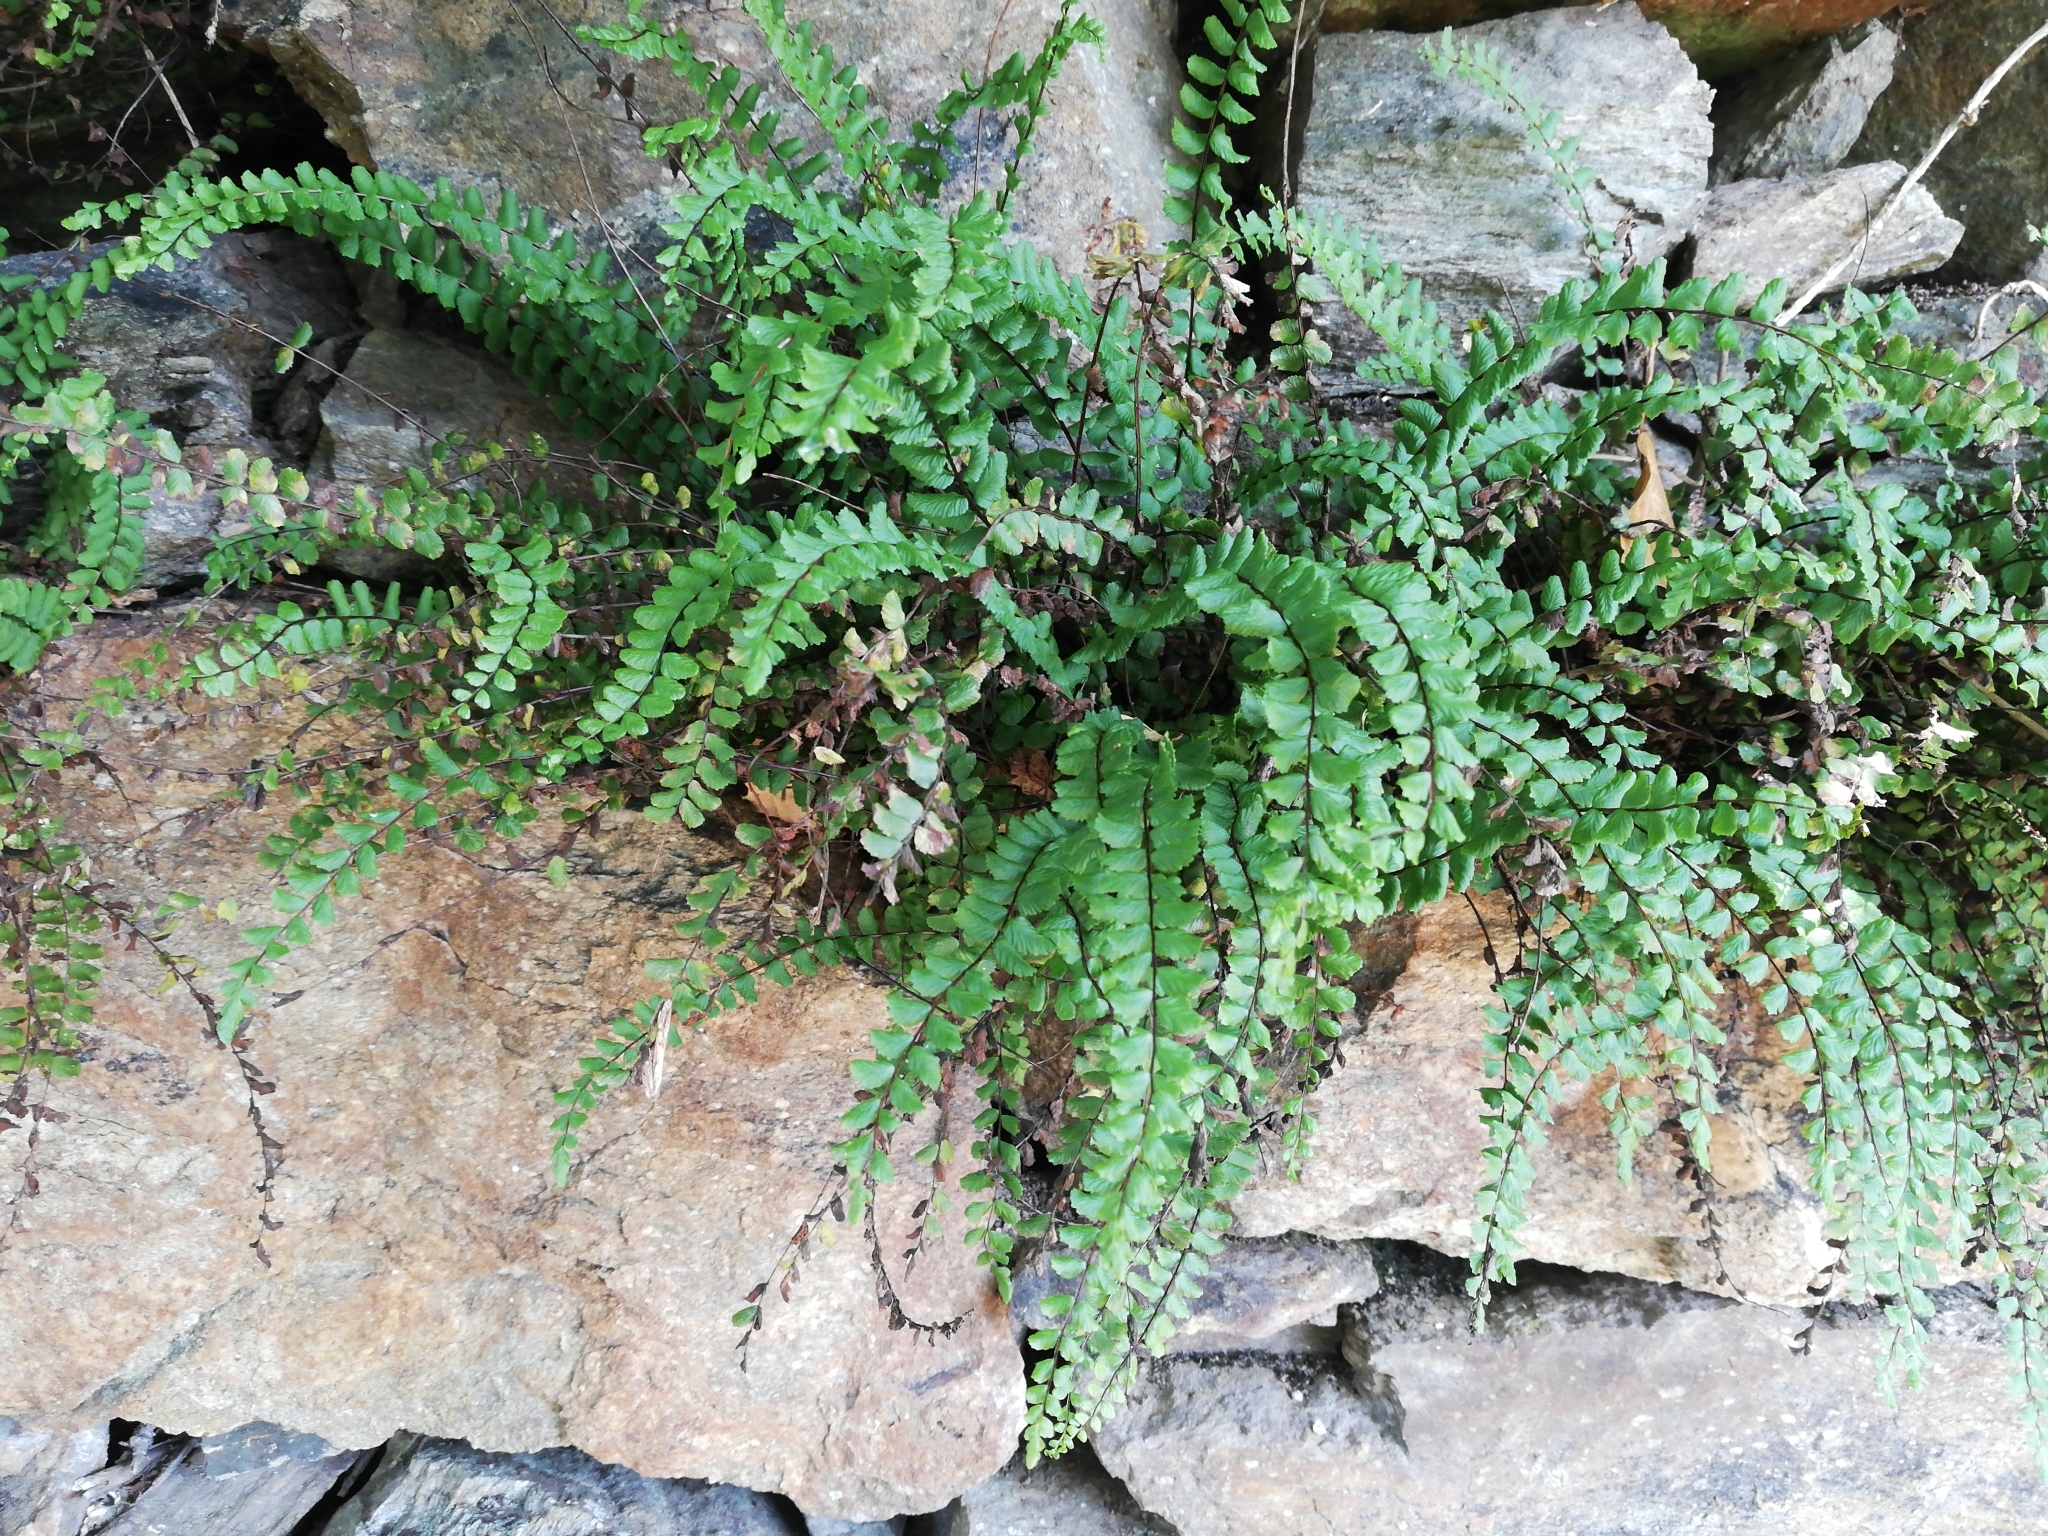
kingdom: Plantae
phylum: Tracheophyta
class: Polypodiopsida
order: Polypodiales
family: Aspleniaceae
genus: Asplenium
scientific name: Asplenium trichomanes
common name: Maidenhair spleenwort
